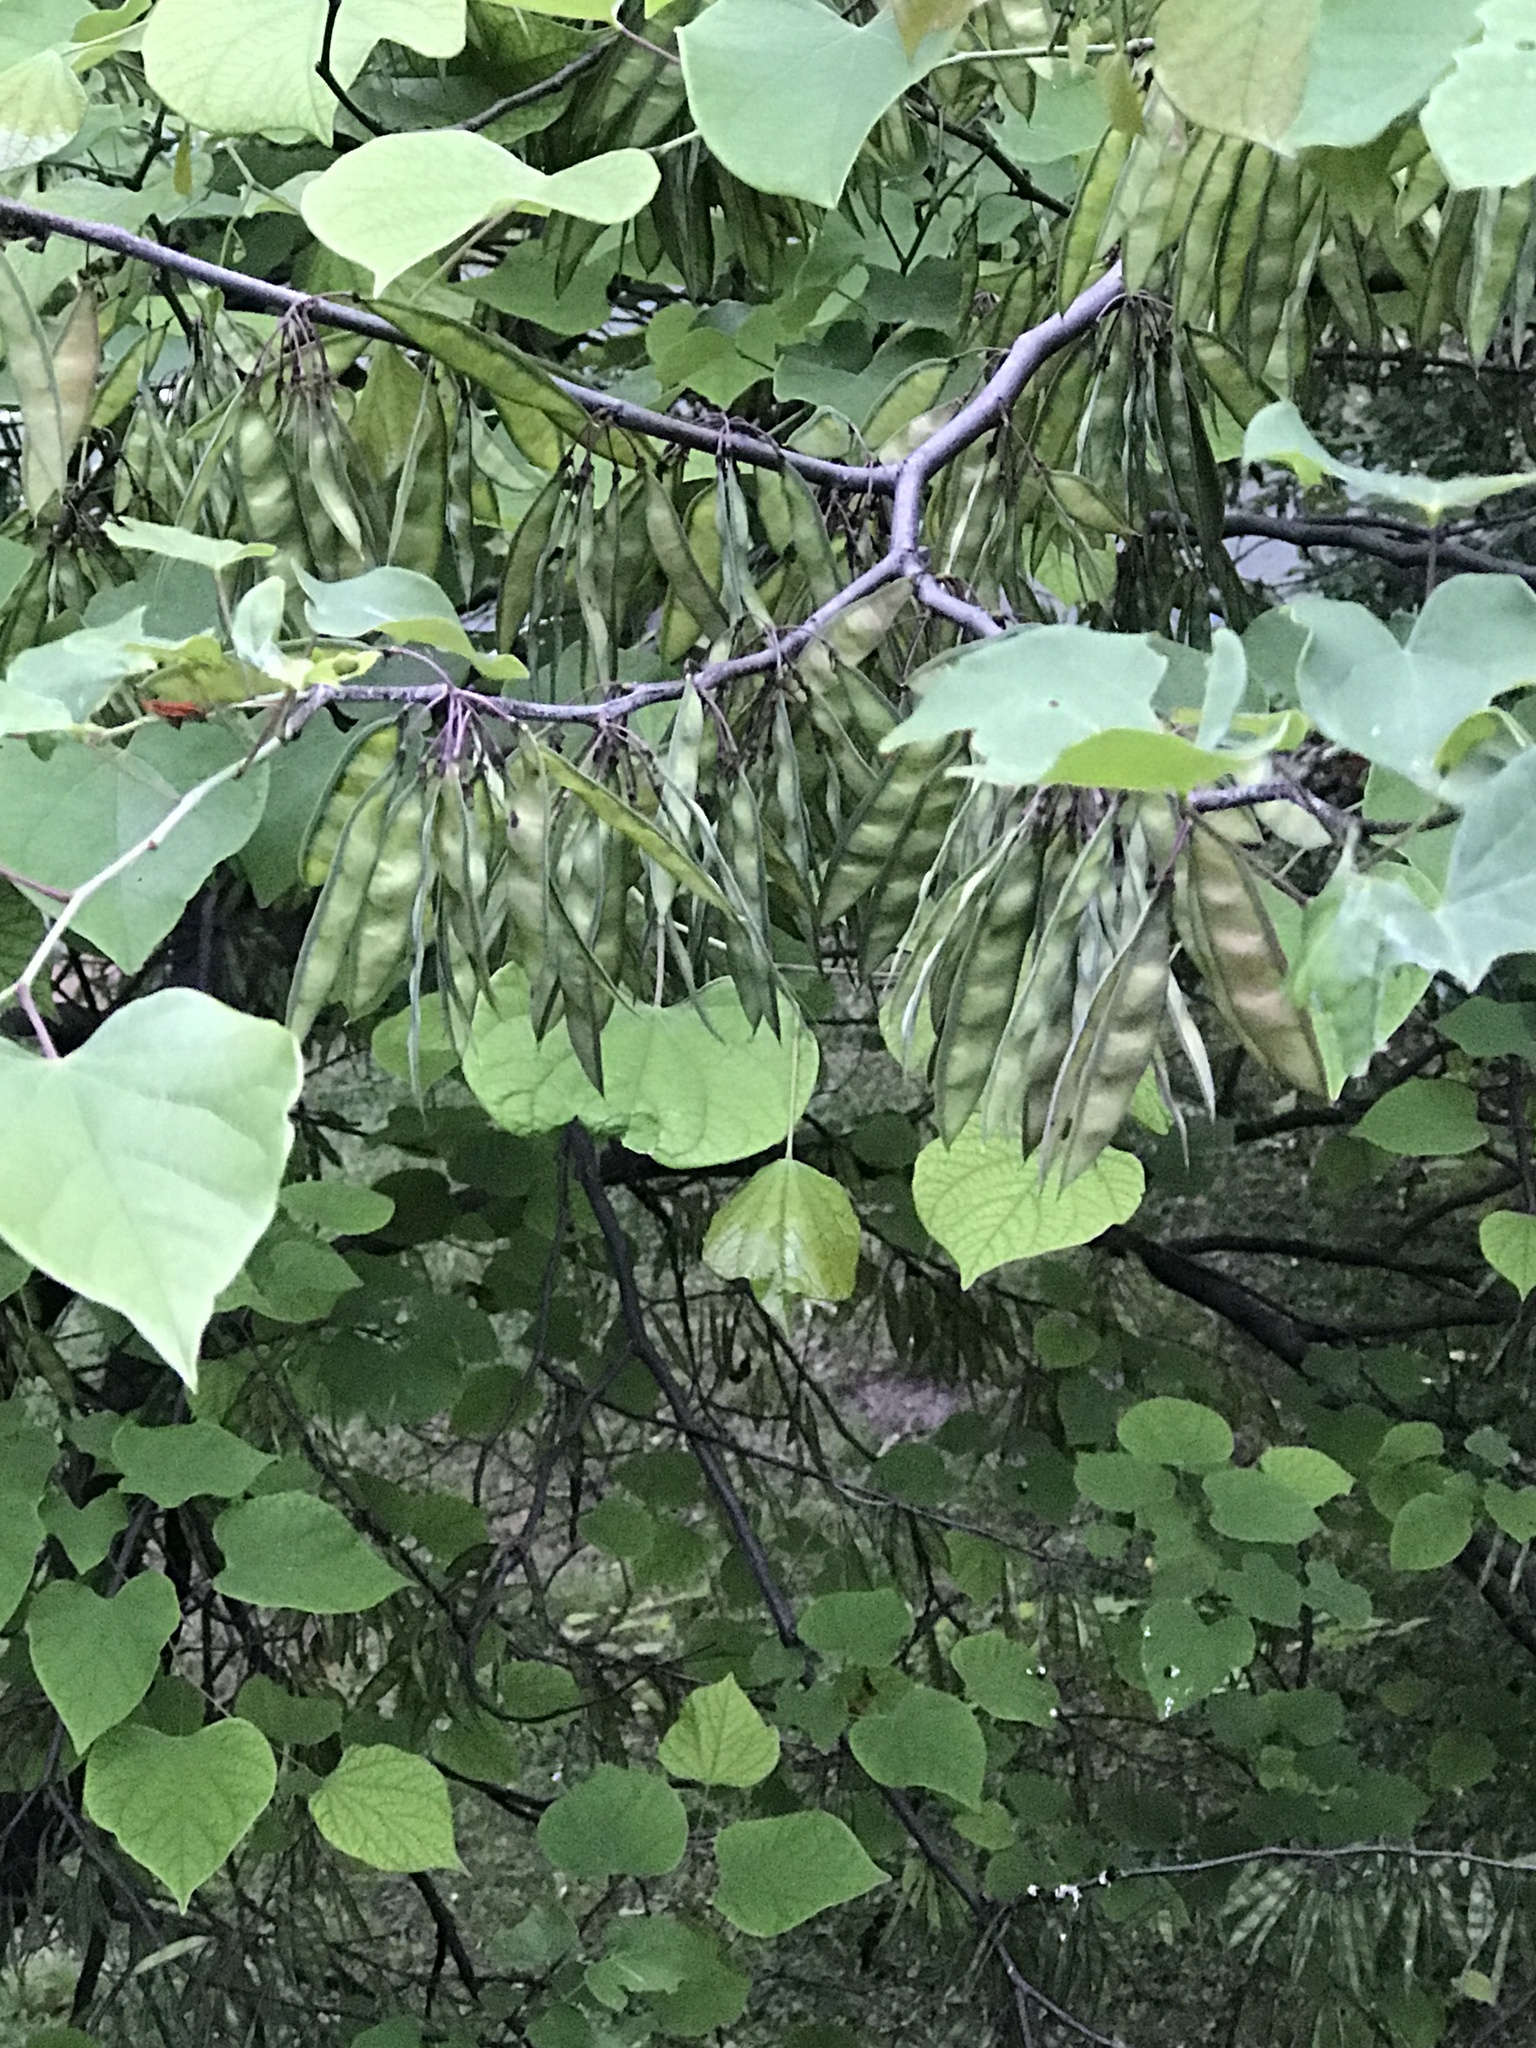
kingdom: Plantae
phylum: Tracheophyta
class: Magnoliopsida
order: Fabales
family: Fabaceae
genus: Cercis
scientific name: Cercis canadensis
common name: Eastern redbud
